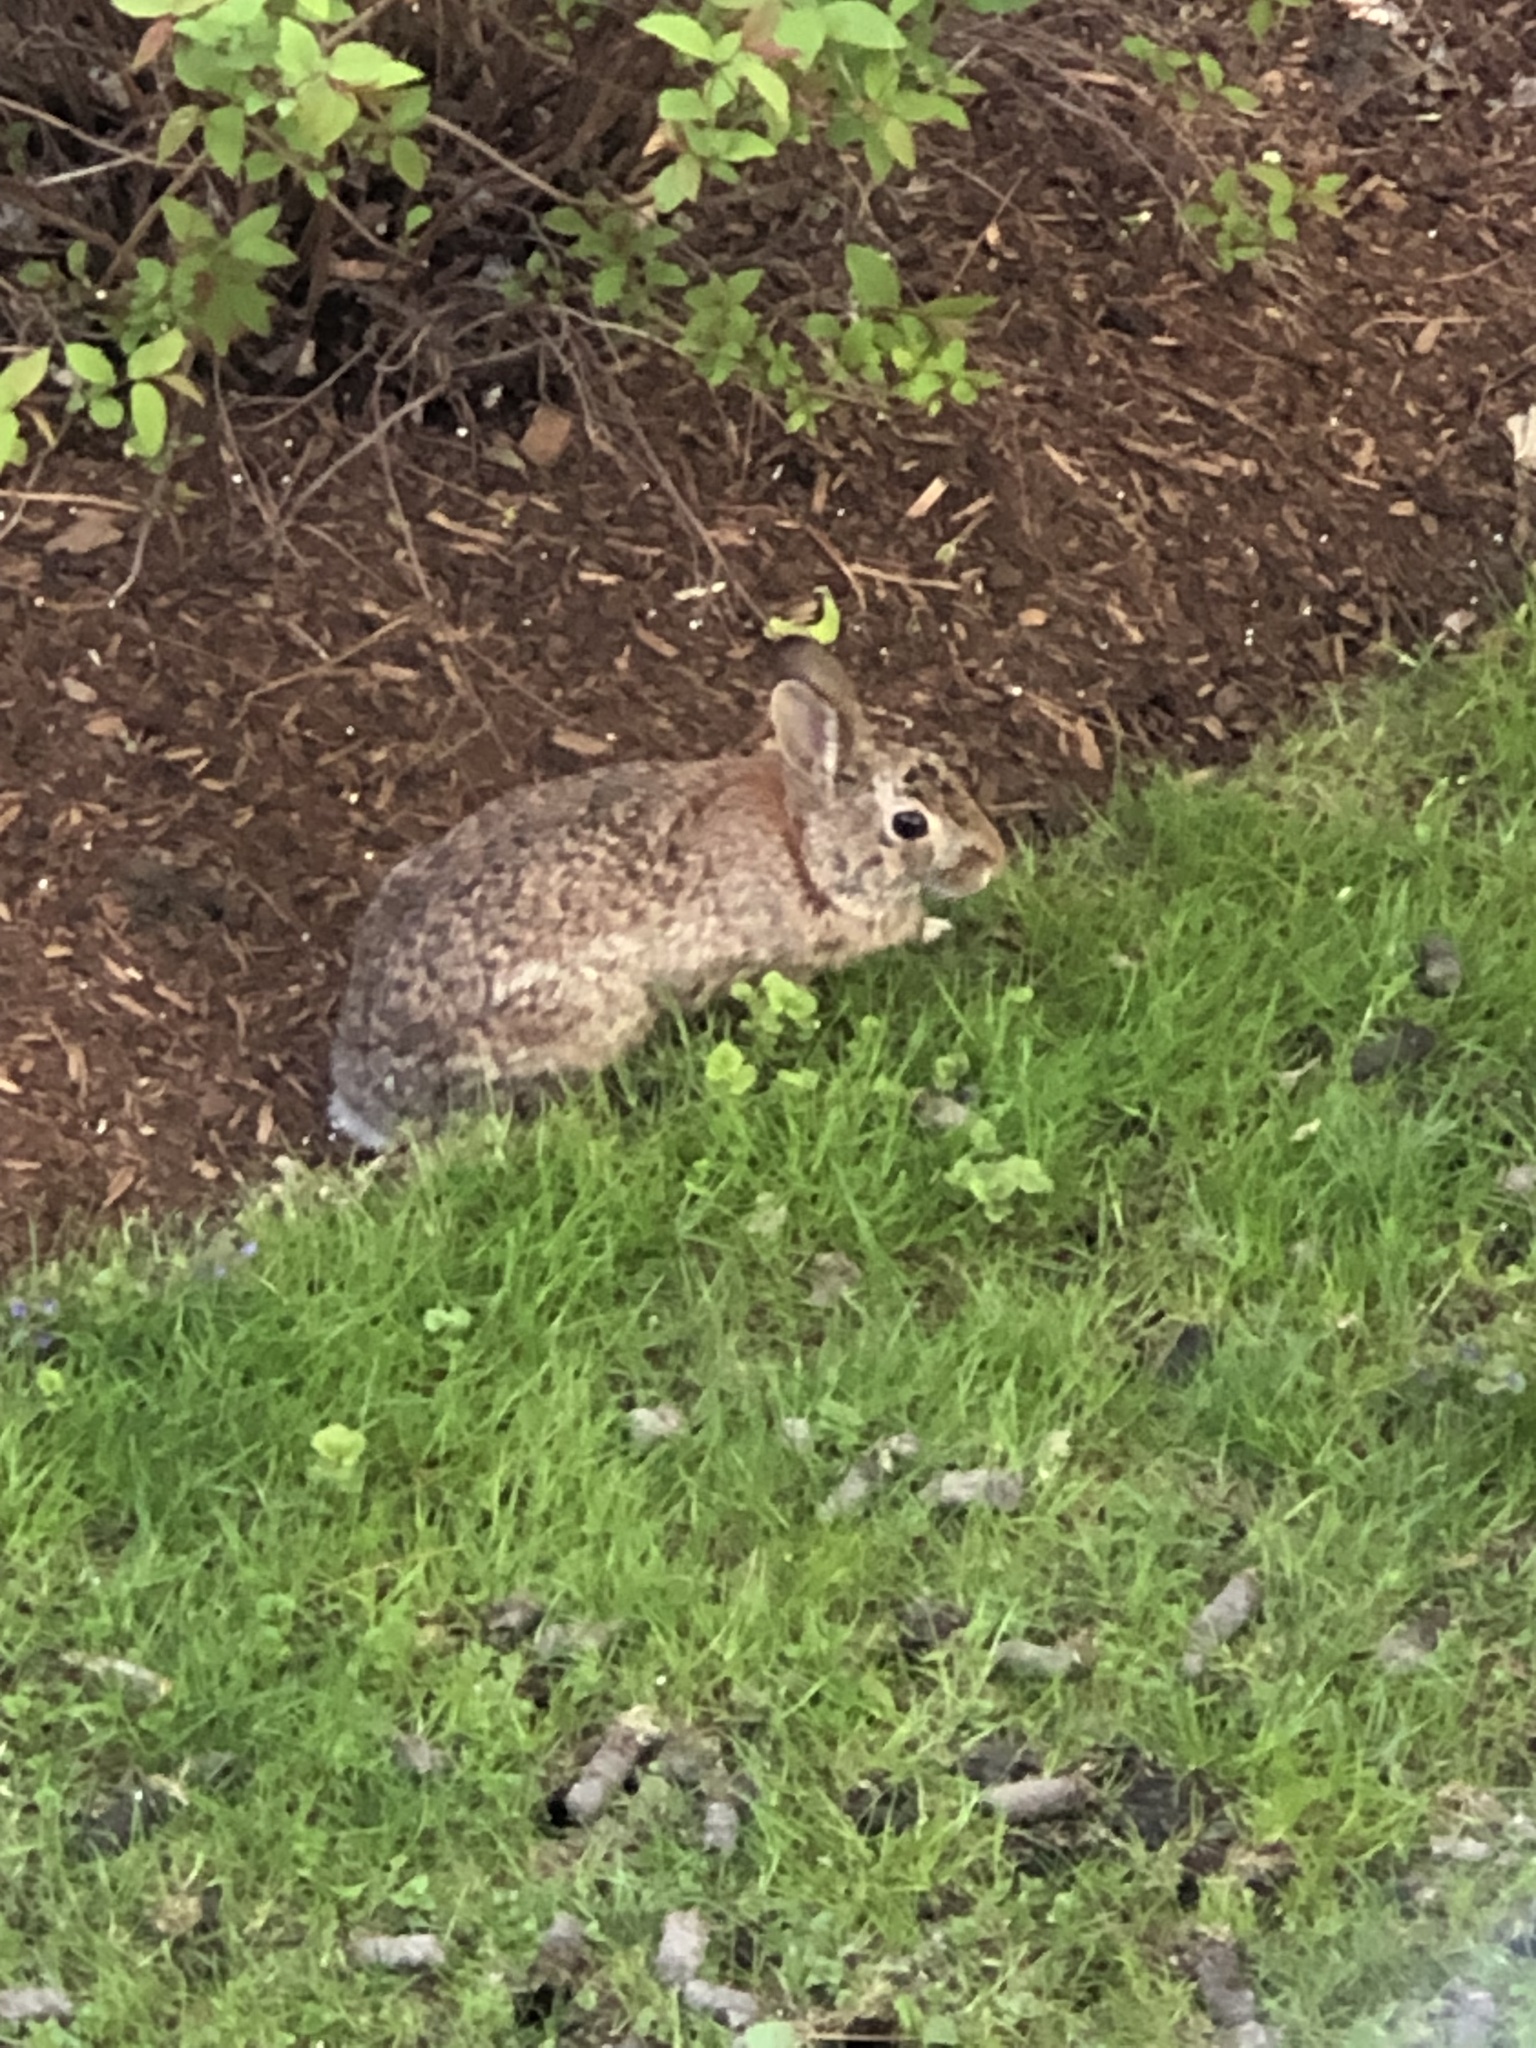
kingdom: Animalia
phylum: Chordata
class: Mammalia
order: Lagomorpha
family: Leporidae
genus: Sylvilagus
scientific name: Sylvilagus floridanus
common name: Eastern cottontail
